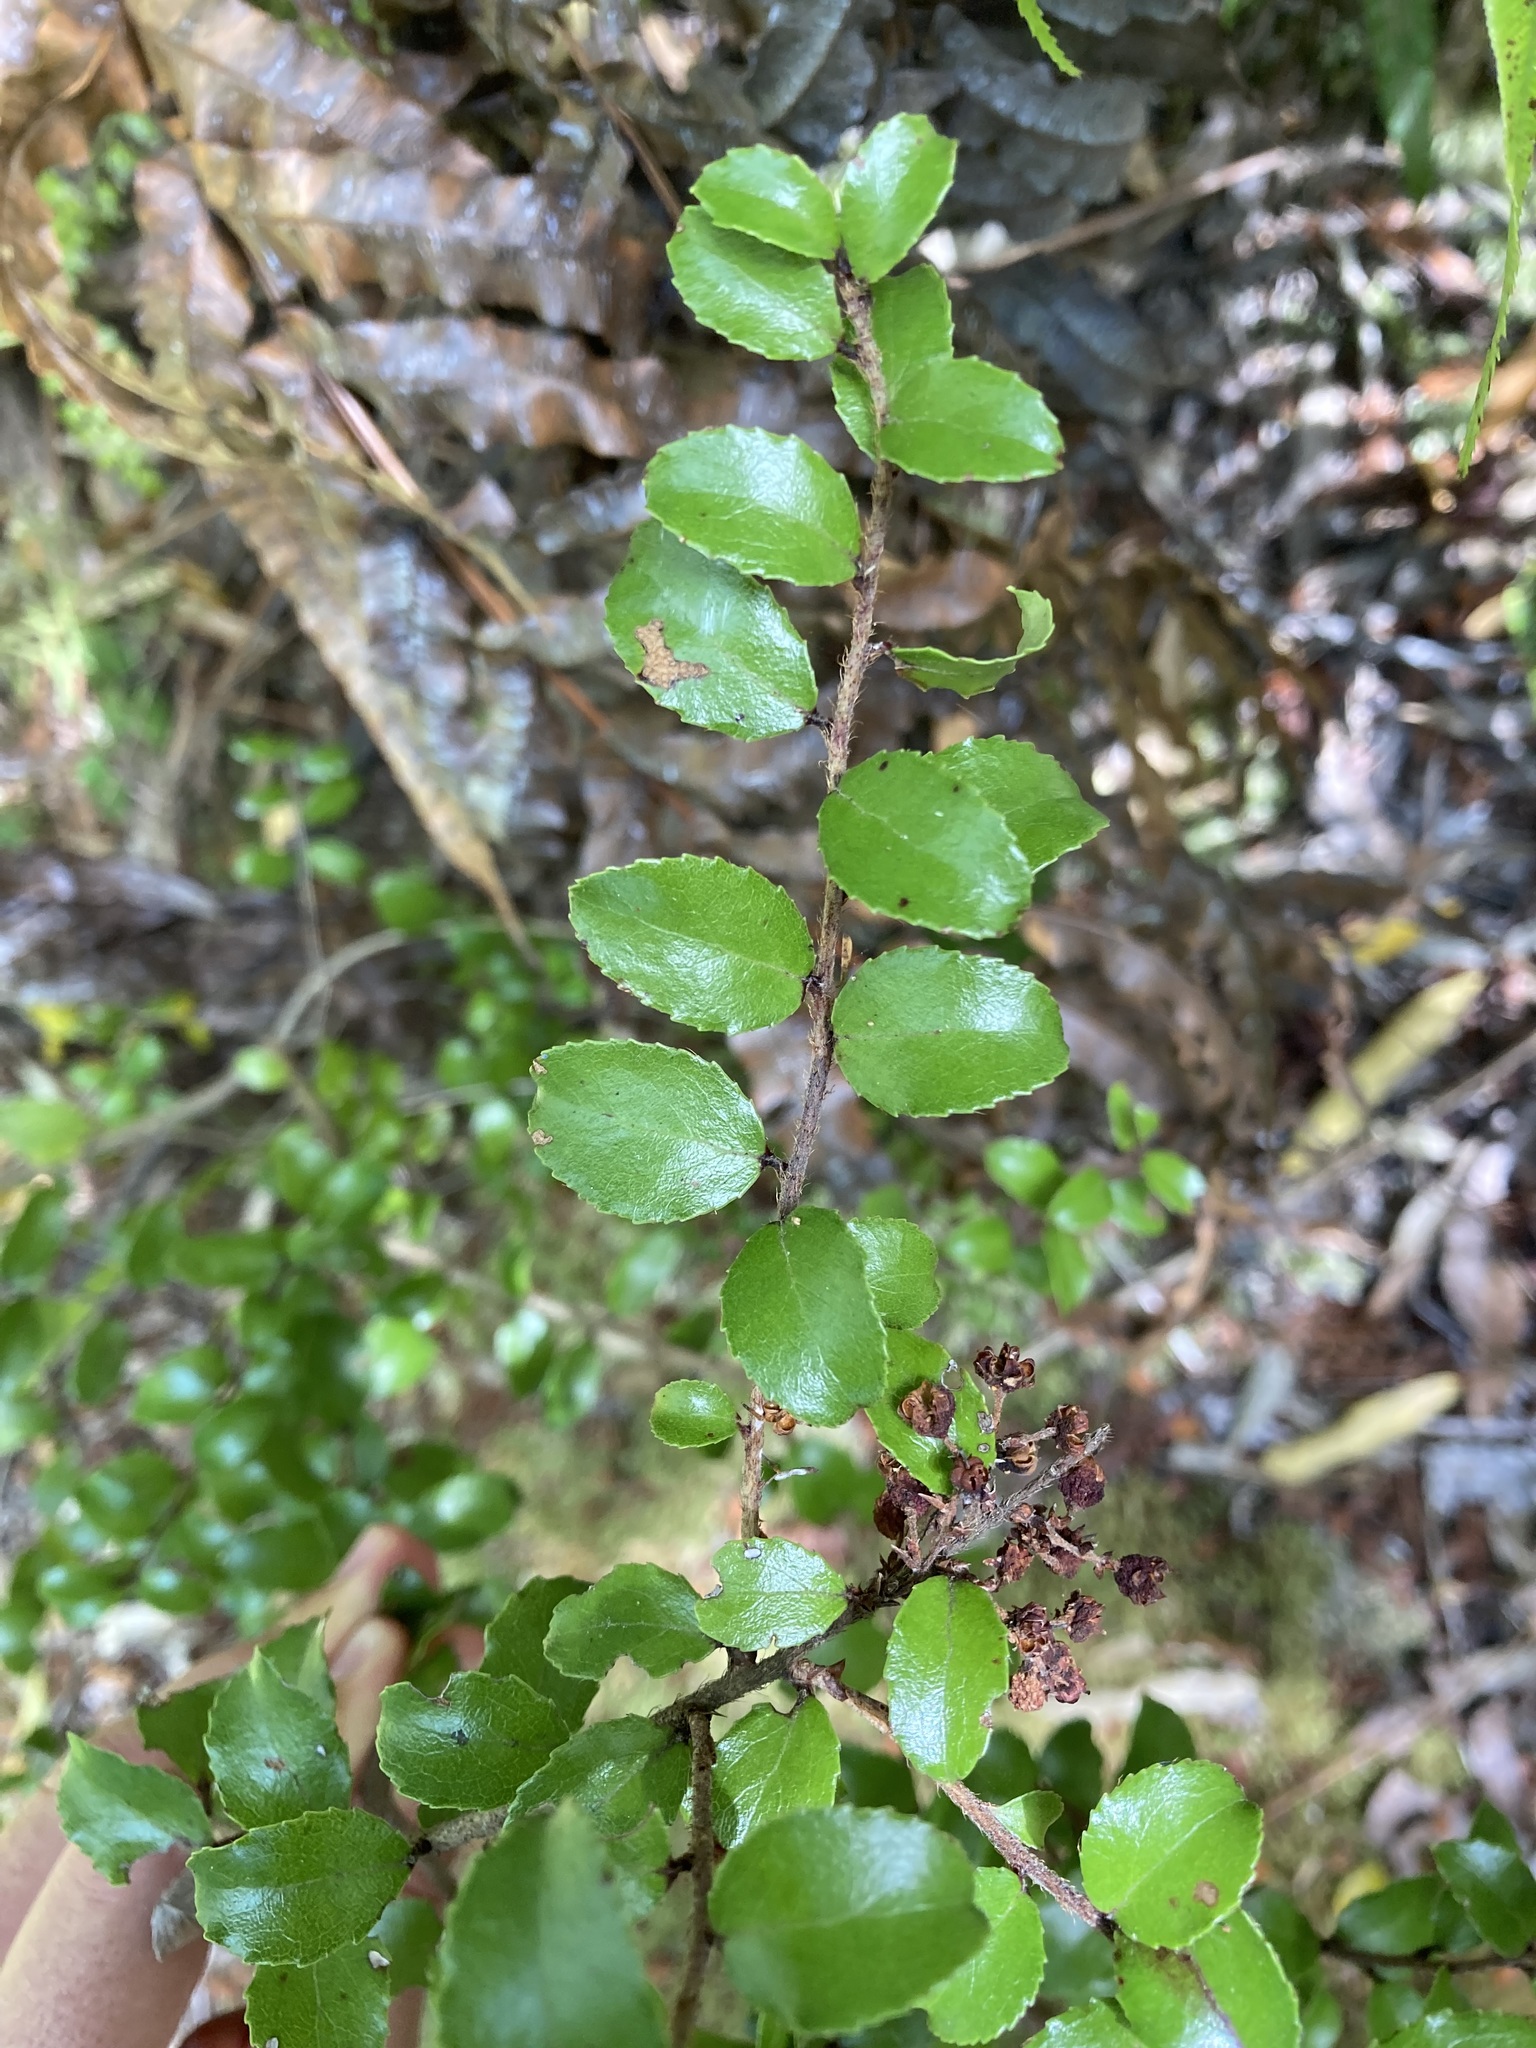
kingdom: Plantae
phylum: Tracheophyta
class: Magnoliopsida
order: Ericales
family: Ericaceae
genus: Gaultheria
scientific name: Gaultheria antipoda
